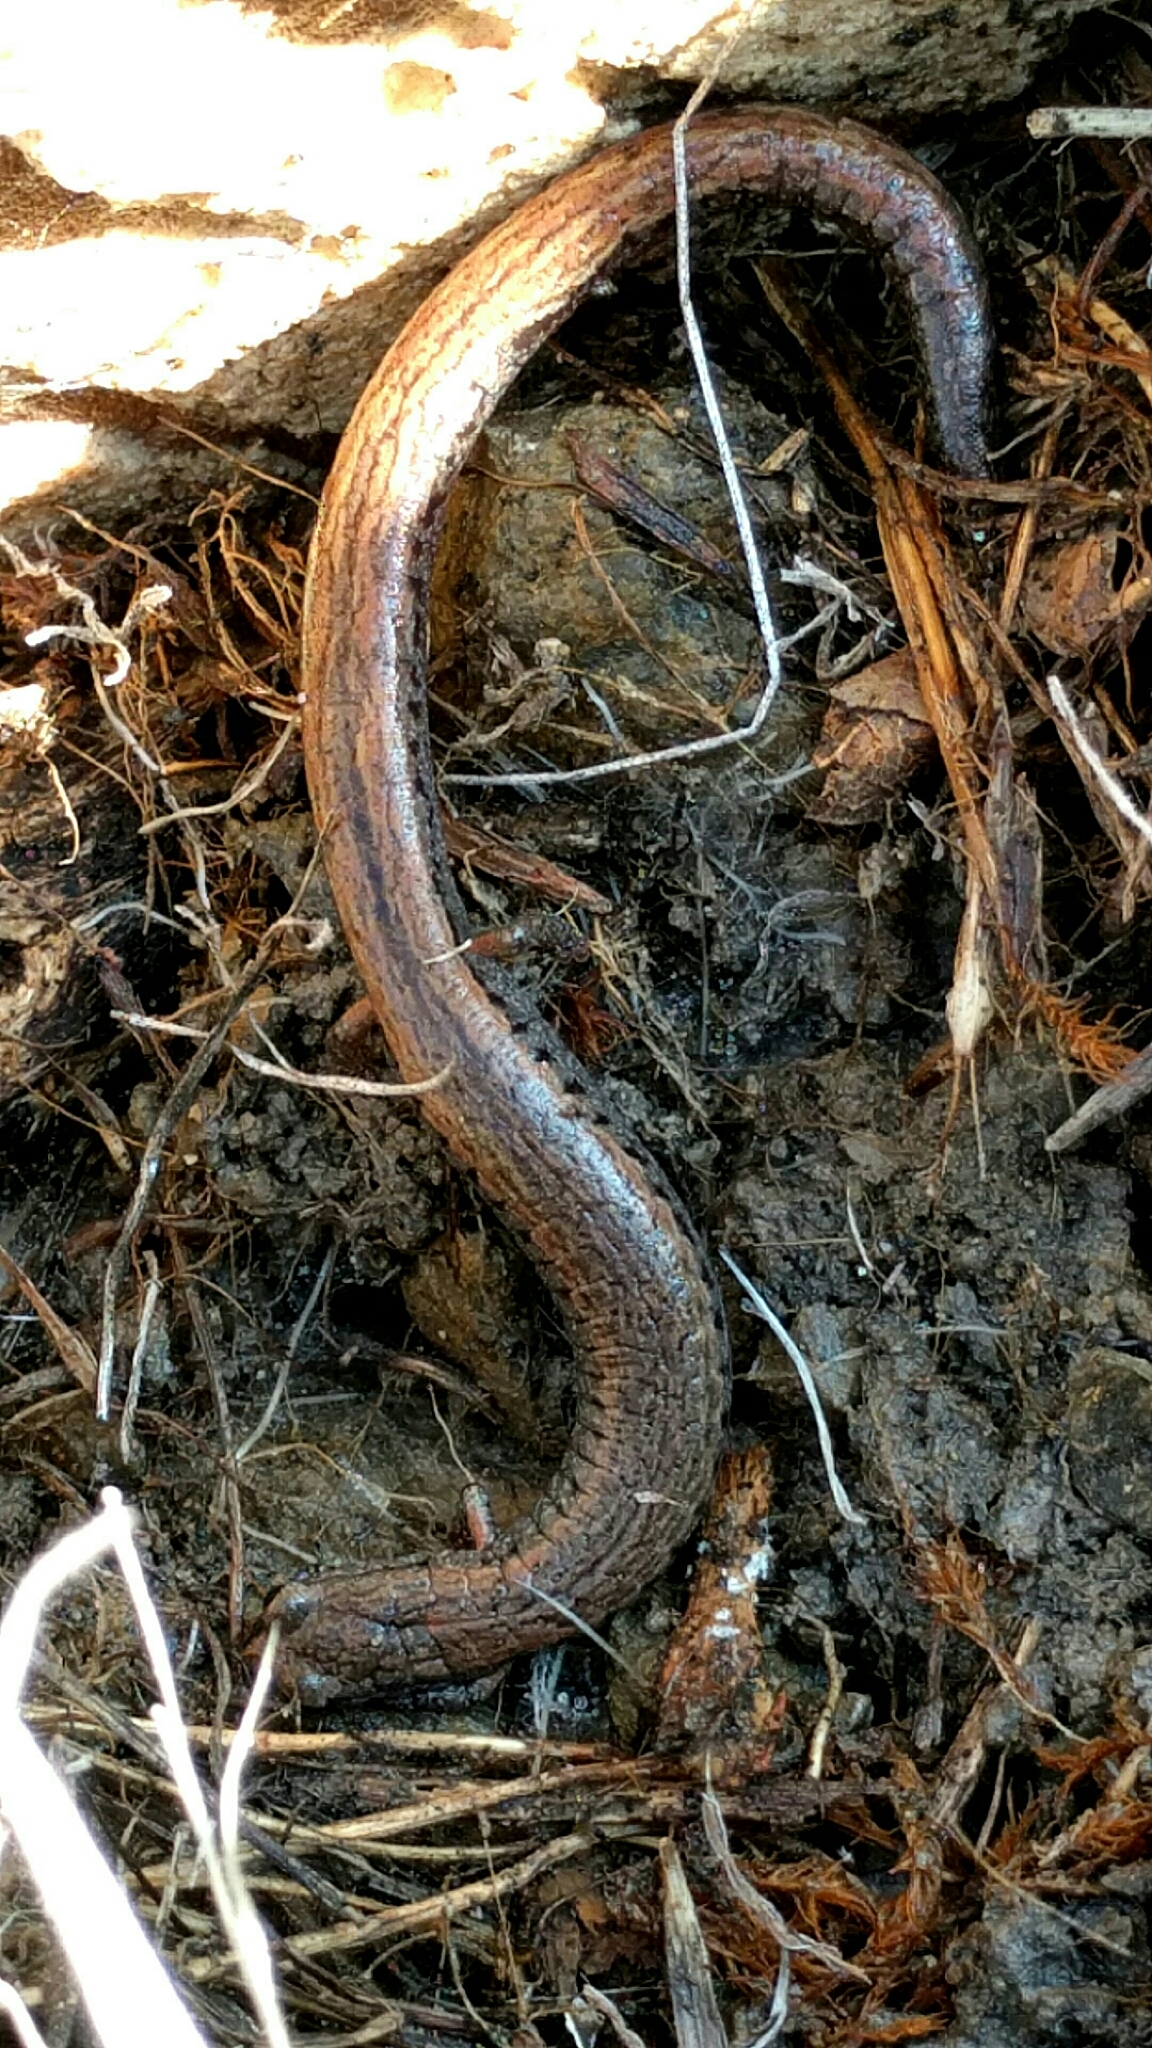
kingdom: Animalia
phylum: Chordata
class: Amphibia
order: Caudata
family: Plethodontidae
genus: Batrachoseps
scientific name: Batrachoseps attenuatus
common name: California slender salamander
